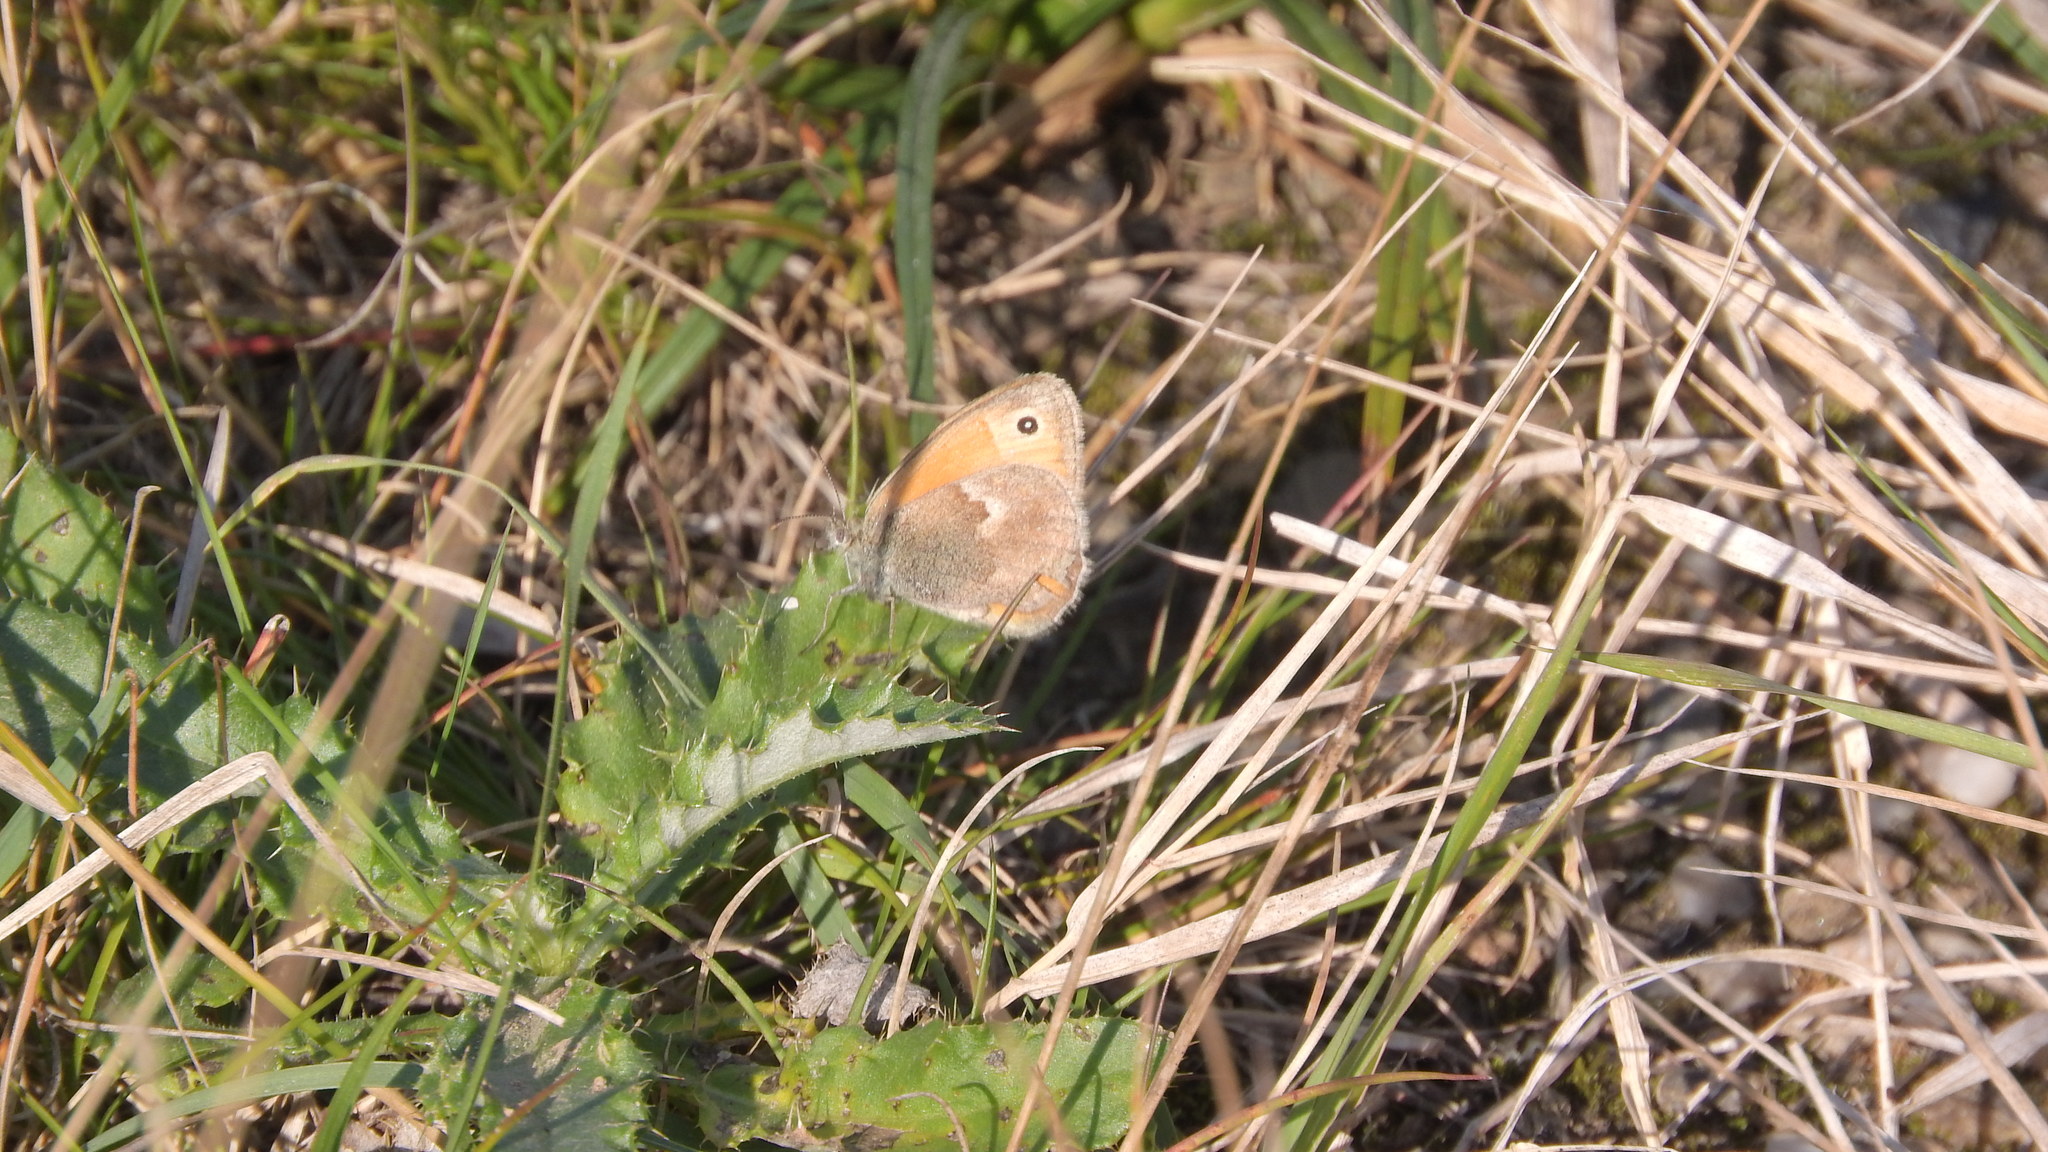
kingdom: Animalia
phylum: Arthropoda
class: Insecta
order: Lepidoptera
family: Nymphalidae
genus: Coenonympha
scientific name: Coenonympha pamphilus
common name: Small heath
